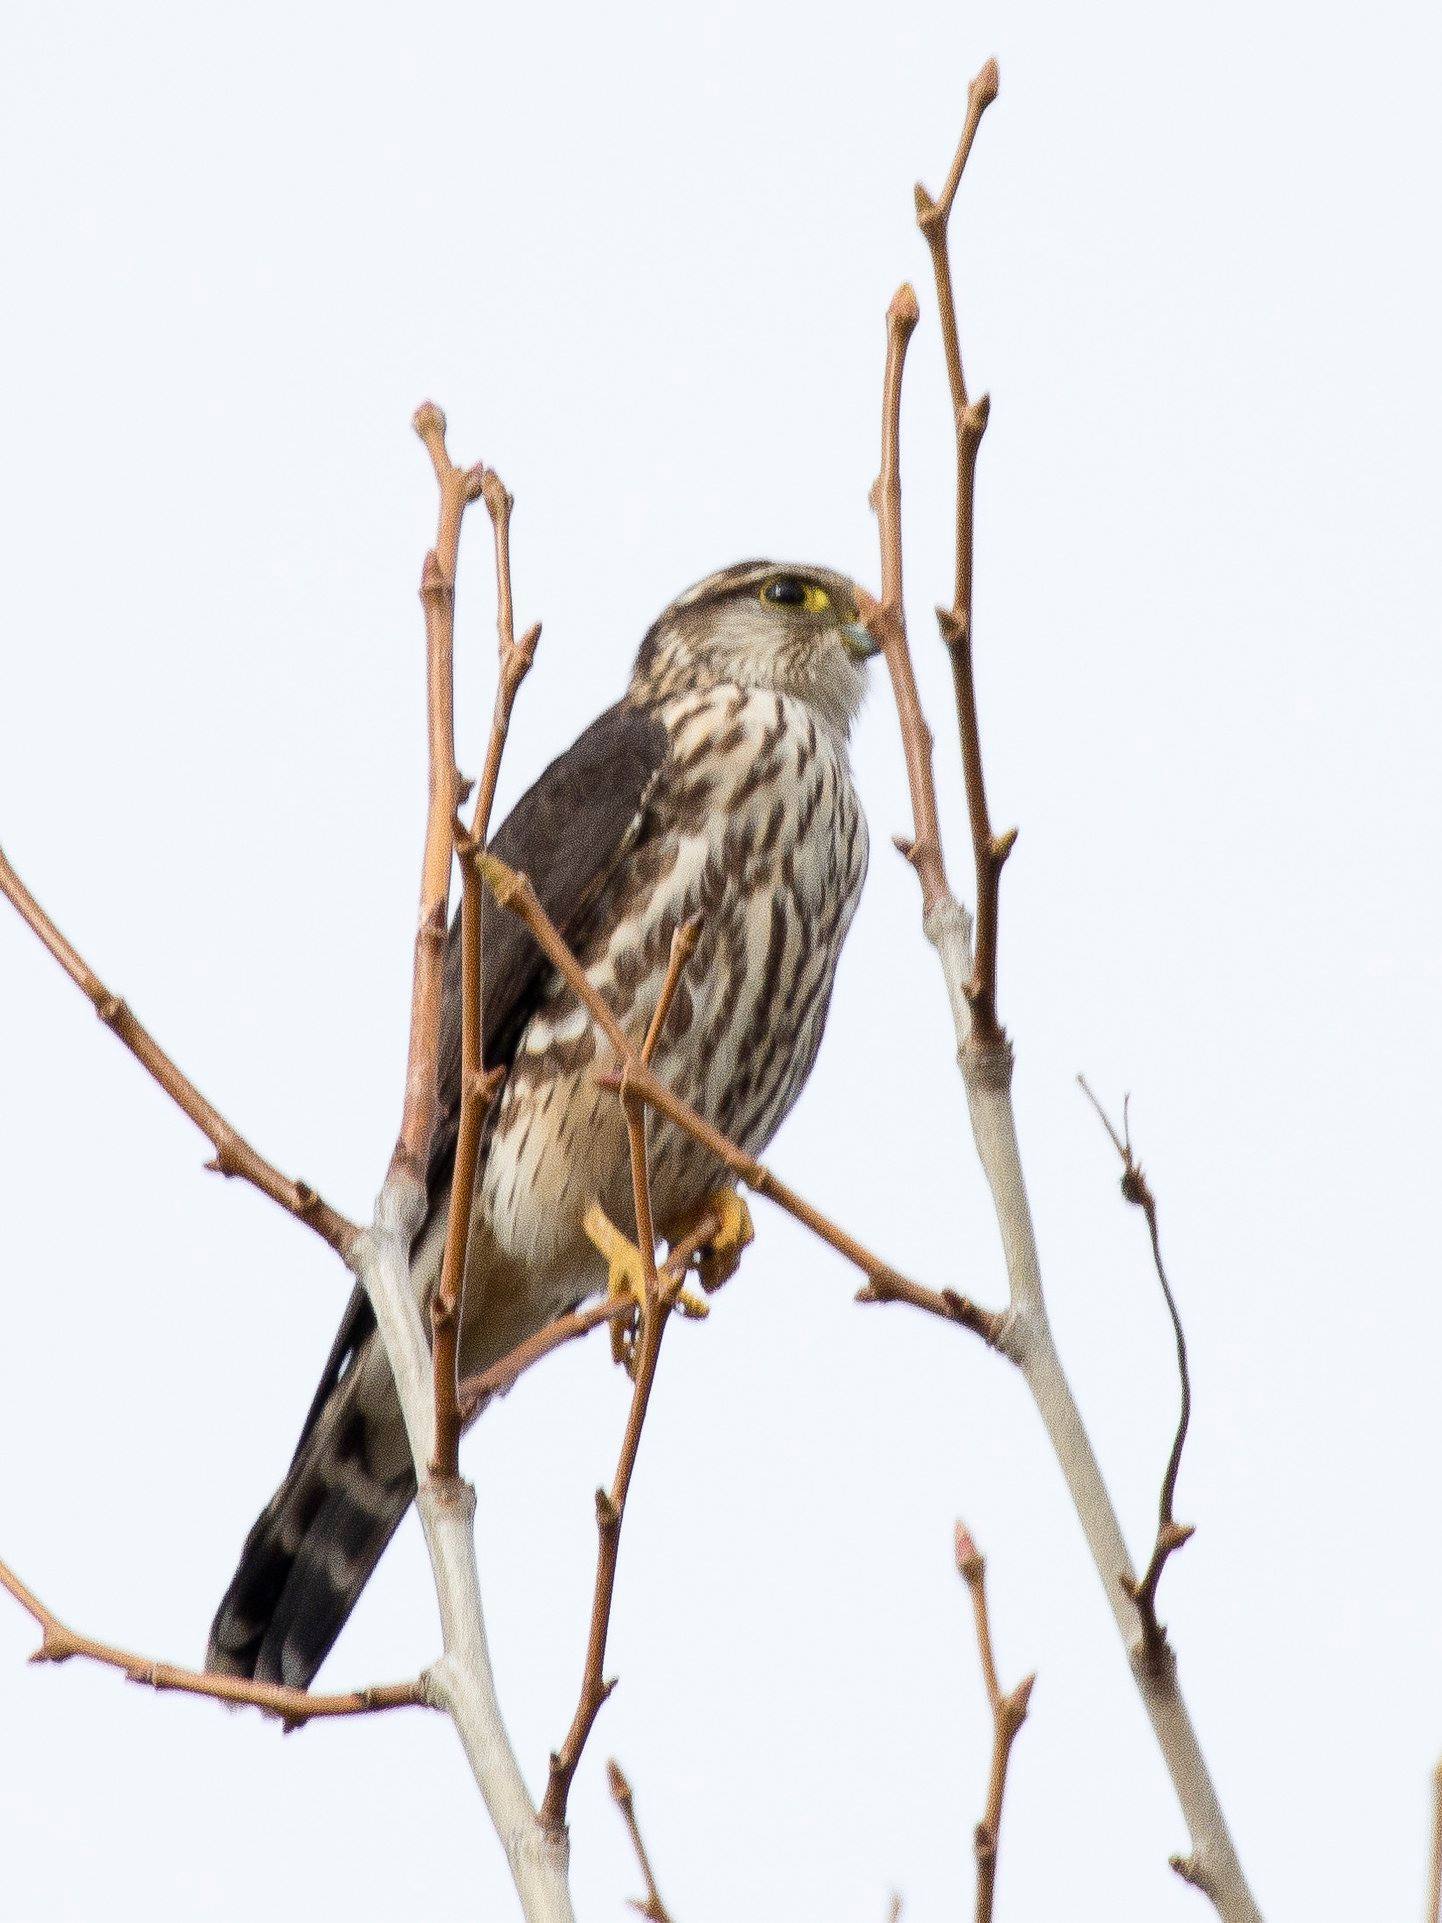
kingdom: Animalia
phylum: Chordata
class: Aves
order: Falconiformes
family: Falconidae
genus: Falco
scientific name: Falco columbarius
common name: Merlin
